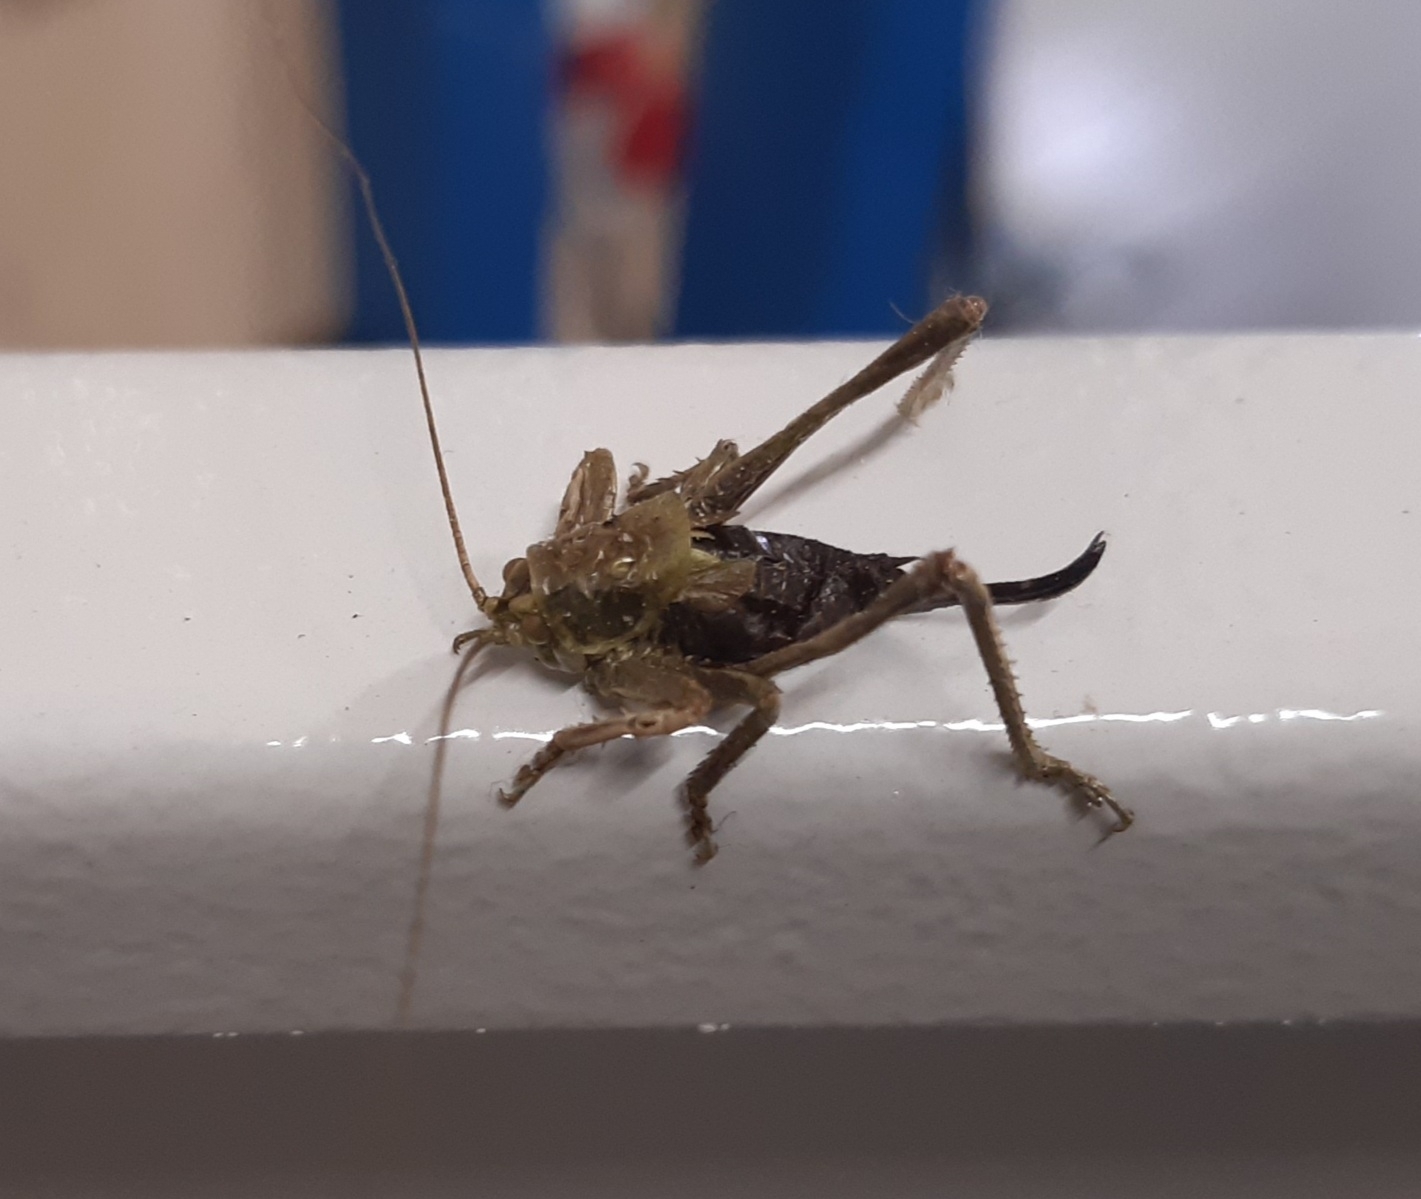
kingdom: Animalia
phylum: Arthropoda
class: Insecta
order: Orthoptera
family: Tettigoniidae
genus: Pholidoptera
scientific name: Pholidoptera griseoaptera
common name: Dark bush-cricket
